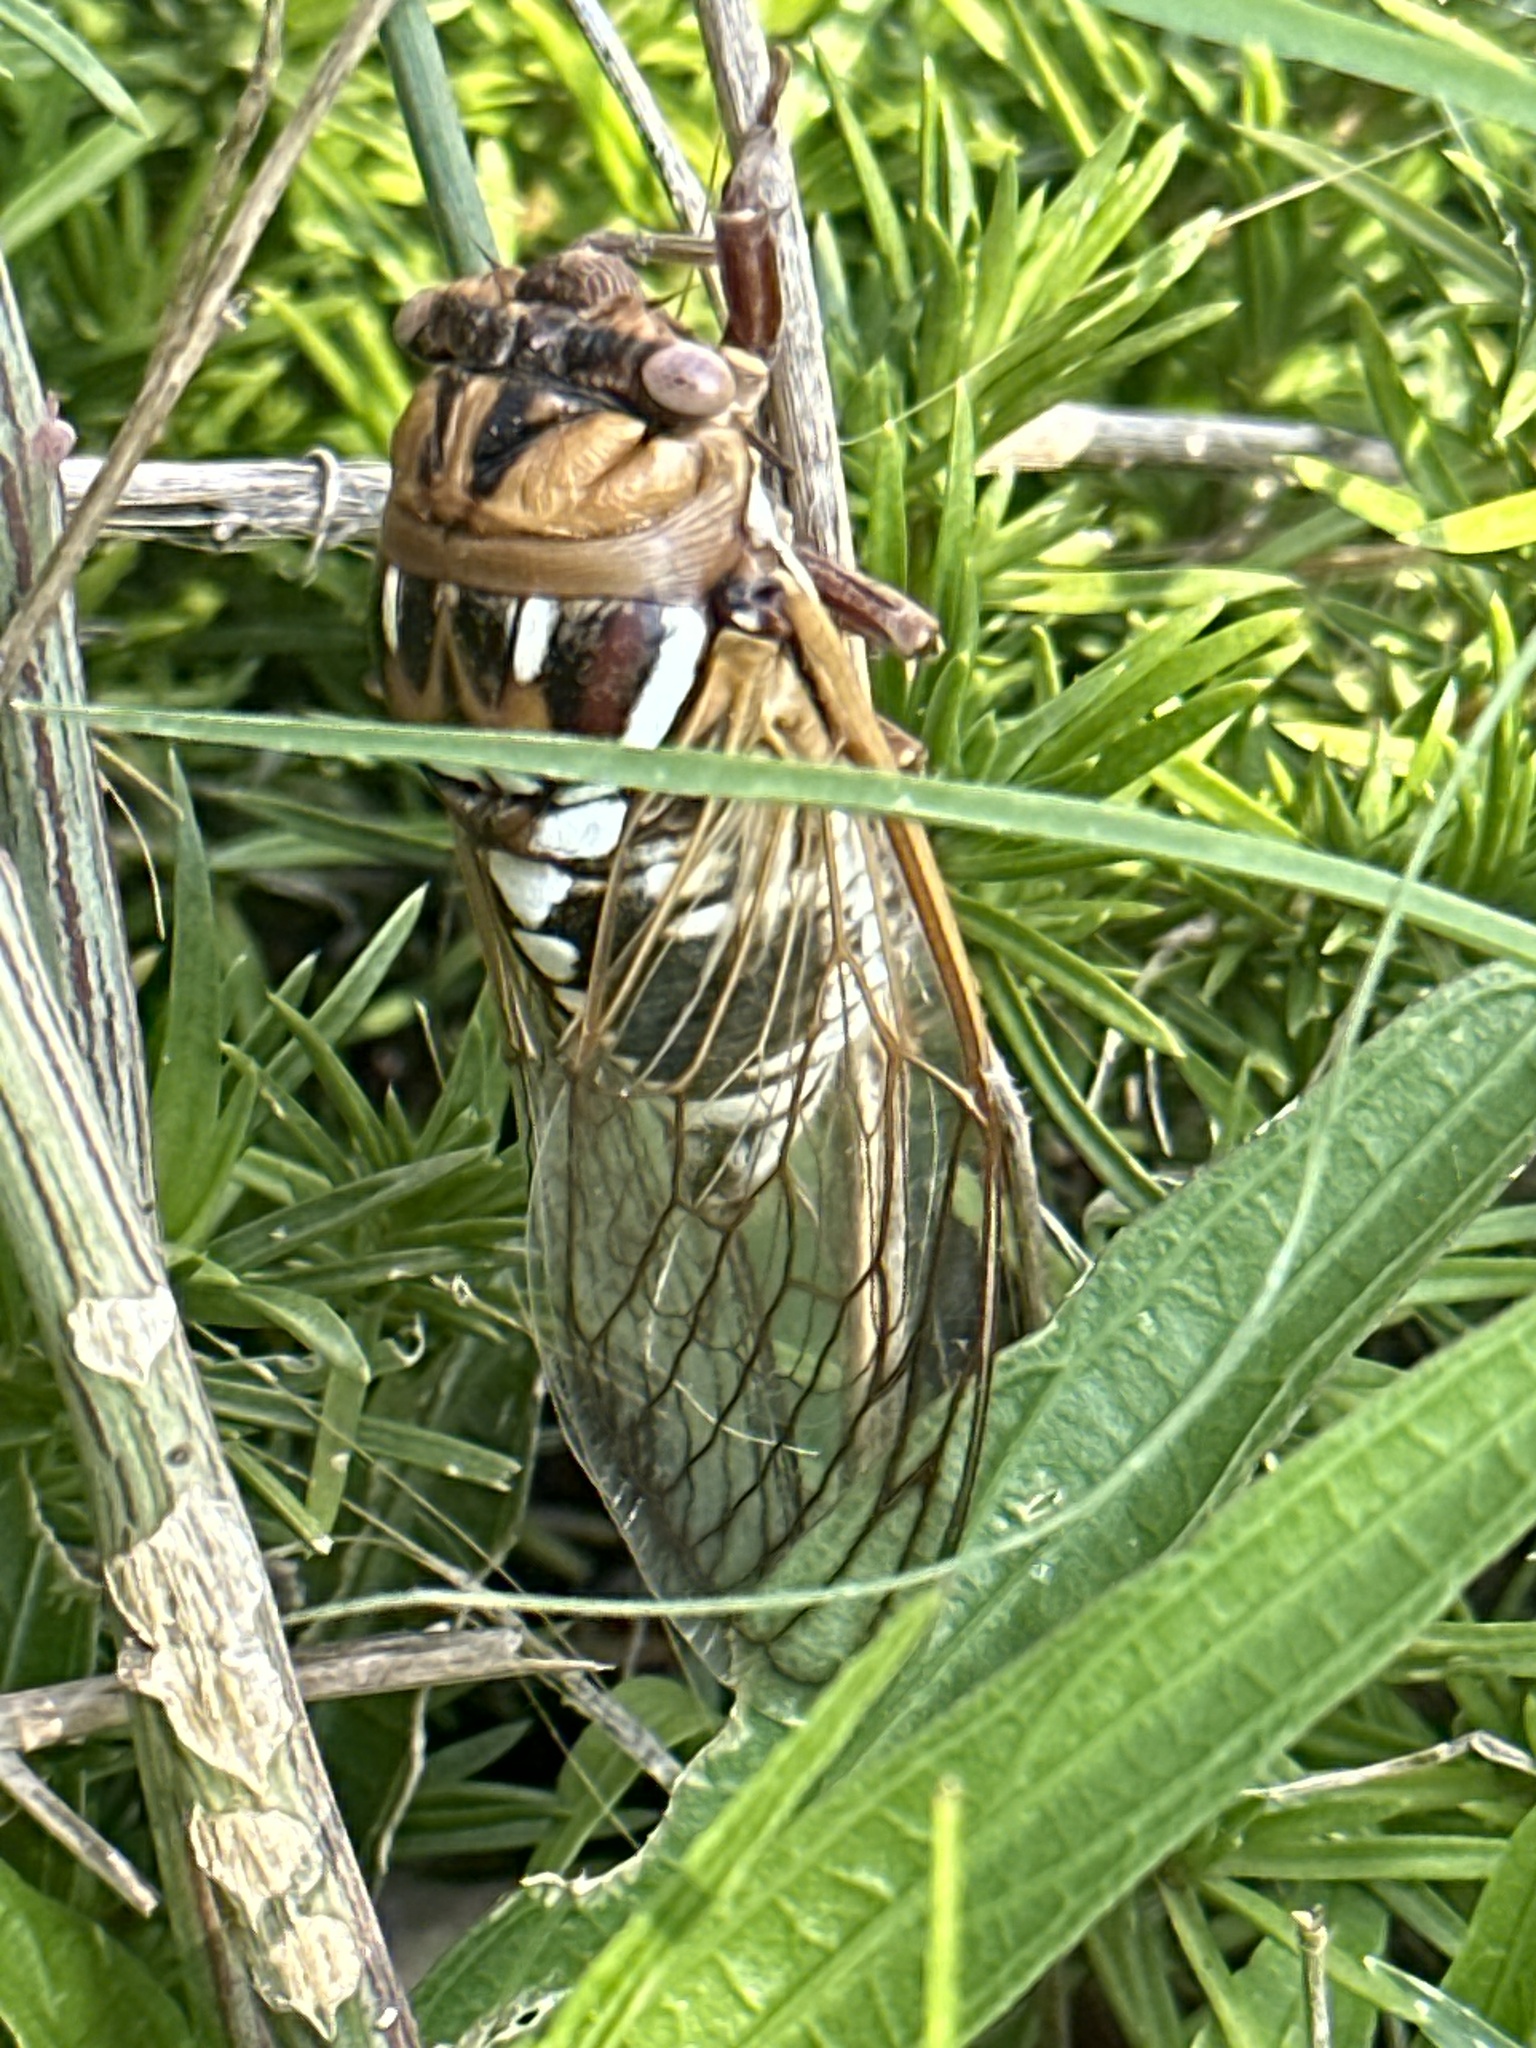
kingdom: Animalia
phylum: Arthropoda
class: Insecta
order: Hemiptera
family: Cicadidae
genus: Megatibicen
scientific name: Megatibicen dorsatus
